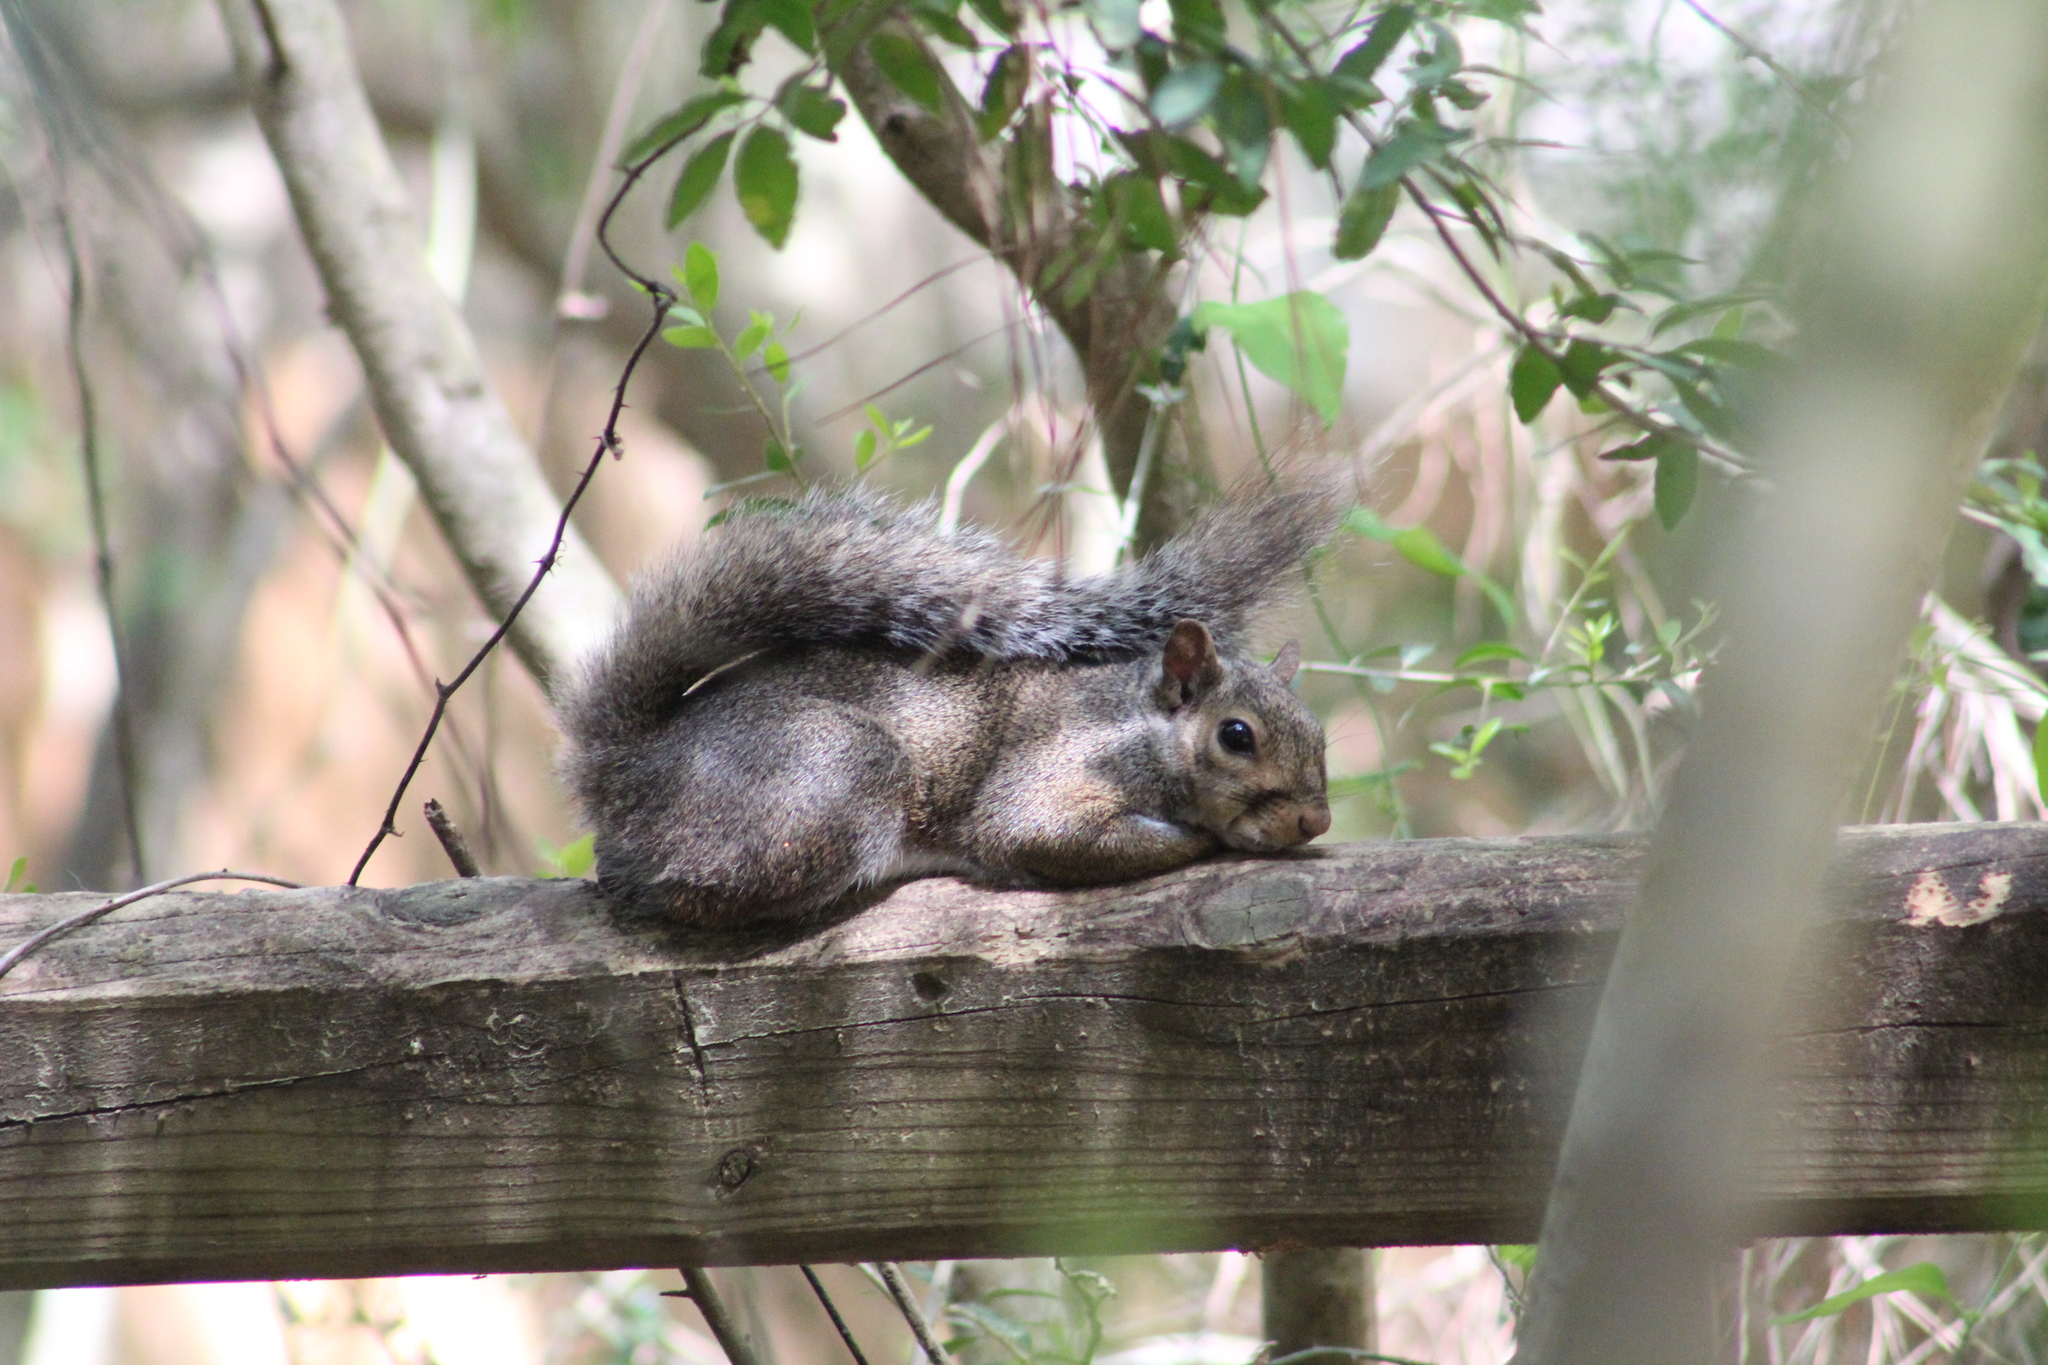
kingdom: Animalia
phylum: Chordata
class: Mammalia
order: Rodentia
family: Sciuridae
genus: Sciurus
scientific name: Sciurus carolinensis
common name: Eastern gray squirrel
